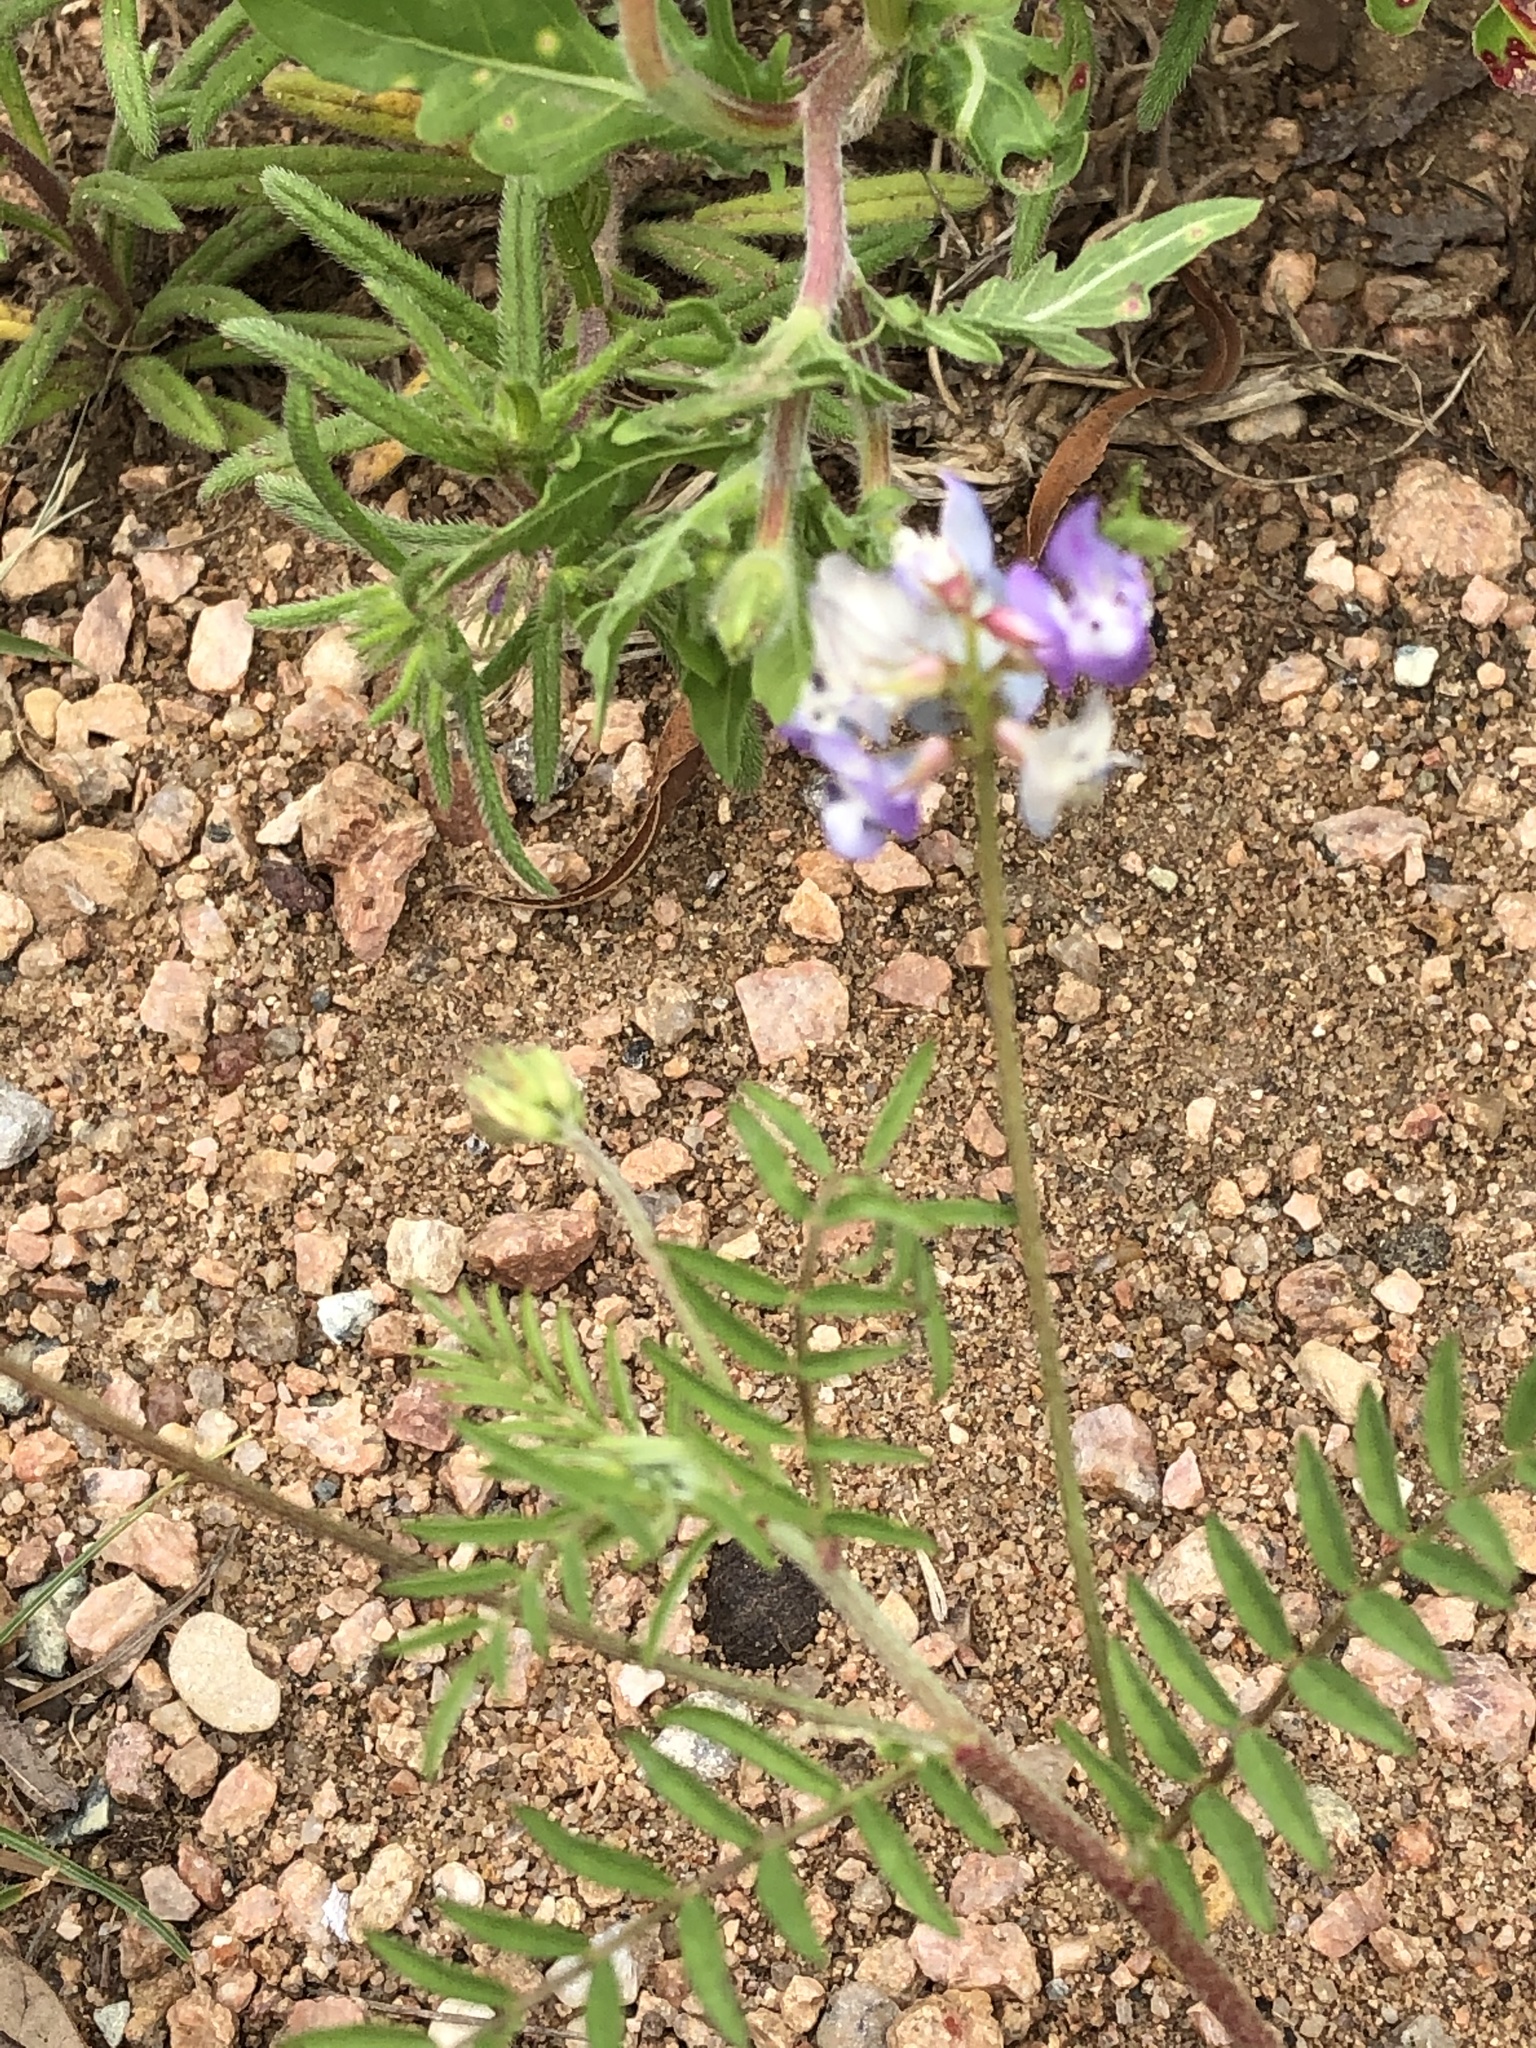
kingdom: Plantae
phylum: Tracheophyta
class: Magnoliopsida
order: Fabales
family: Fabaceae
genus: Astragalus
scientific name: Astragalus nuttallianus
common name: Smallflowered milkvetch
